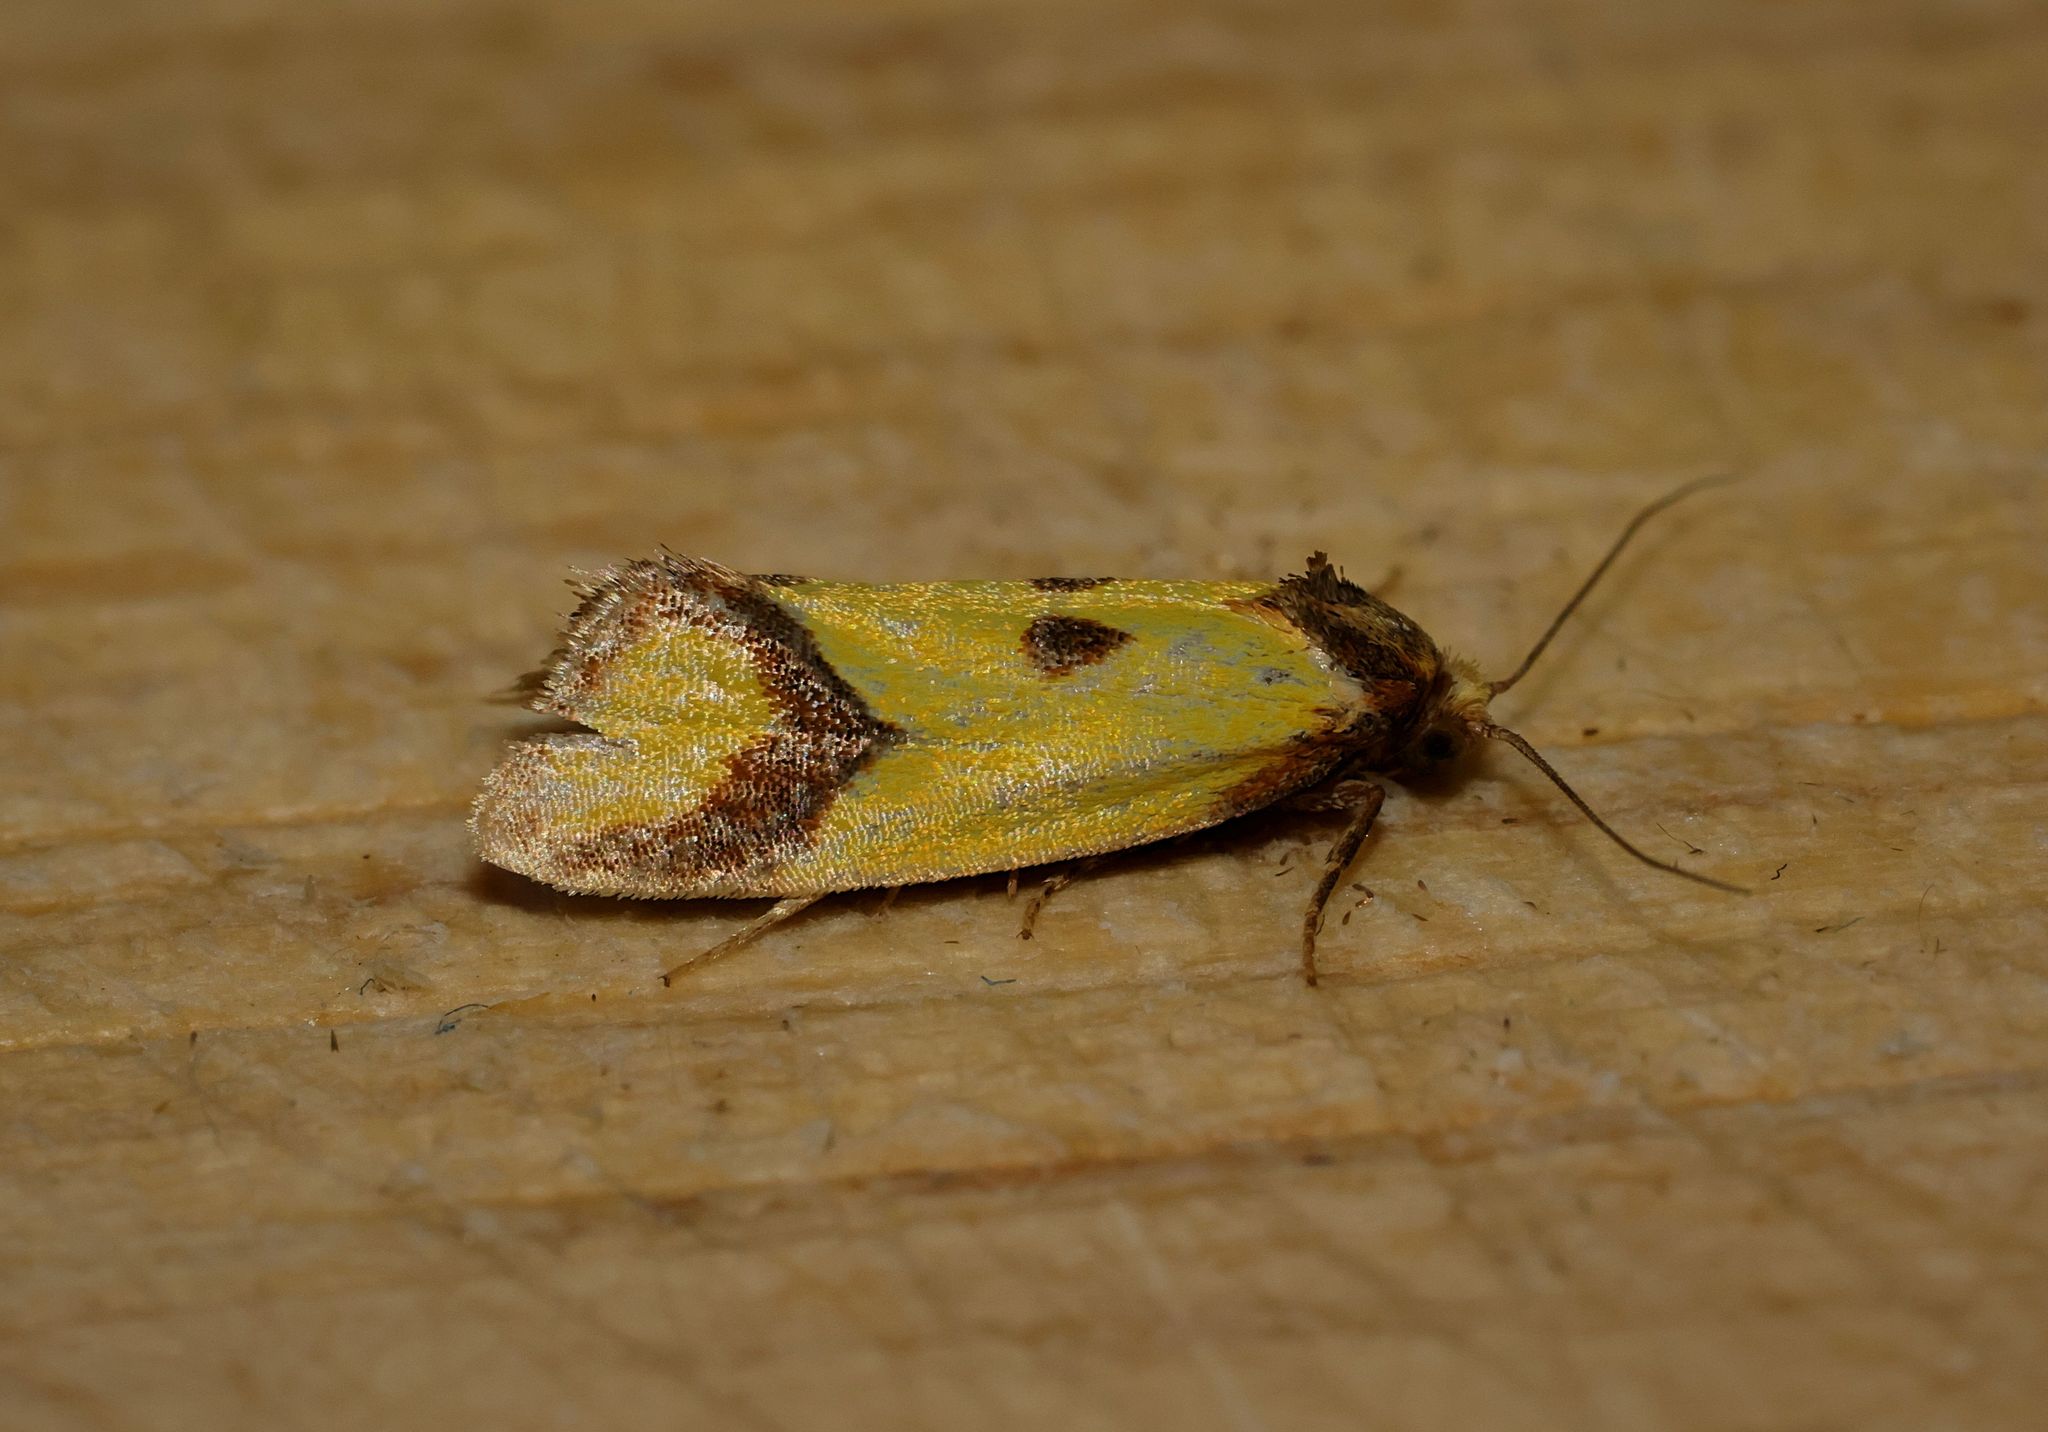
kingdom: Animalia
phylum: Arthropoda
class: Insecta
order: Lepidoptera
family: Tortricidae
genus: Agapeta
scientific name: Agapeta zoegana
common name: Sulfur knapweed root moth
